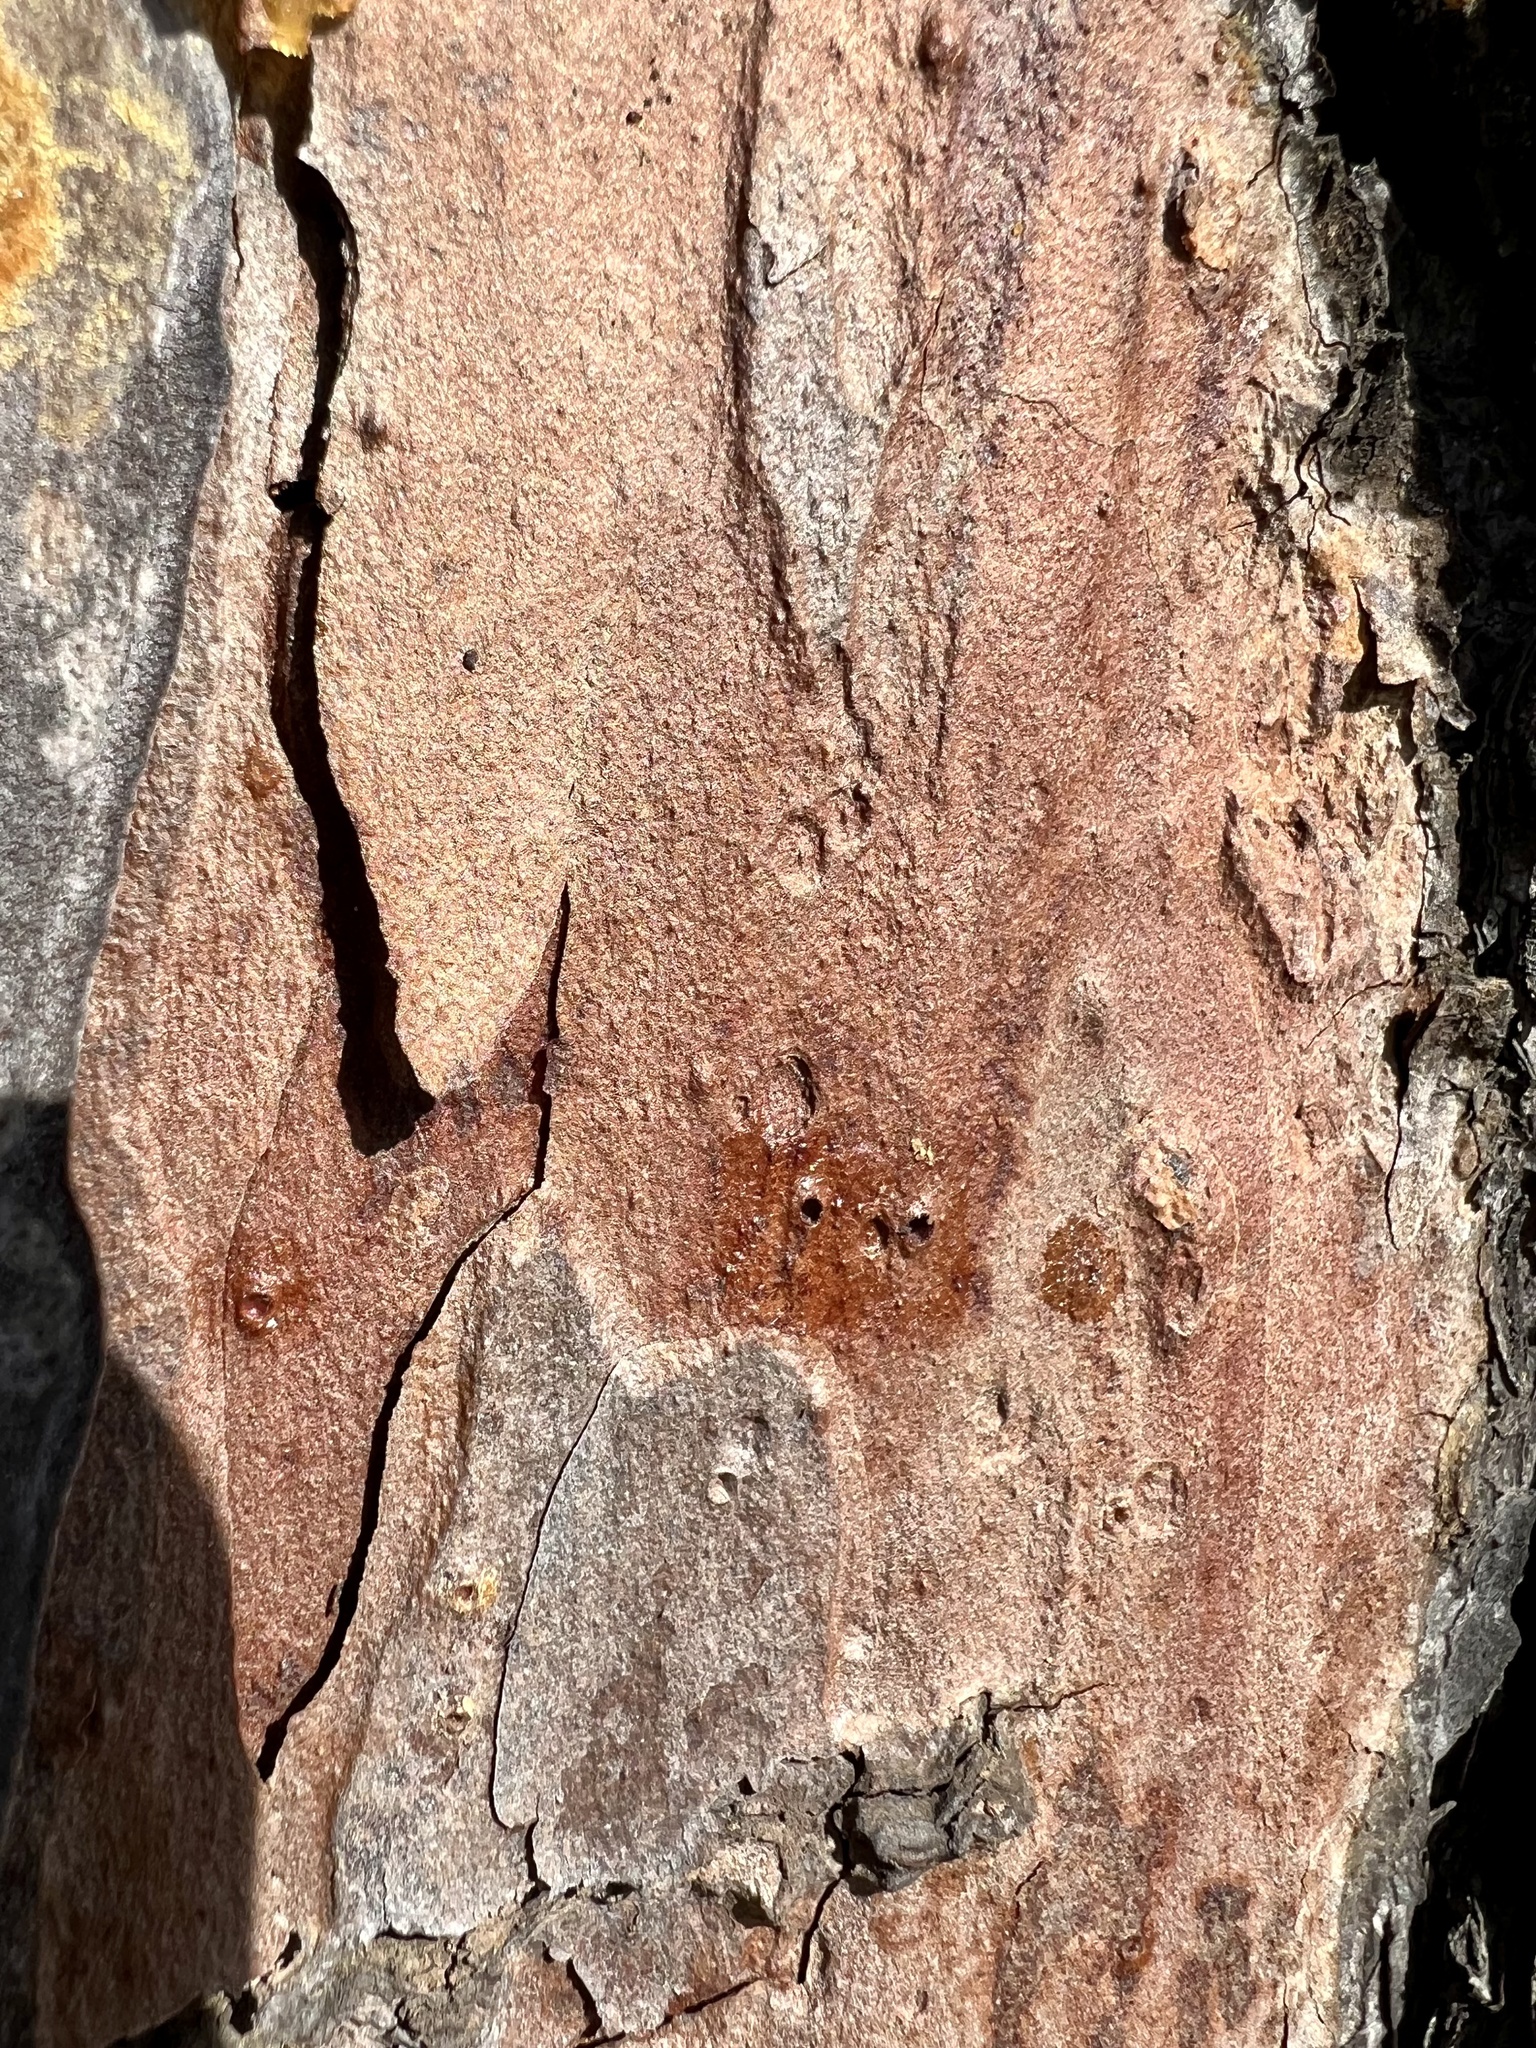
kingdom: Plantae
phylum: Tracheophyta
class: Pinopsida
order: Pinales
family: Pinaceae
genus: Pinus
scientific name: Pinus echinata
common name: Shortleaf pine
